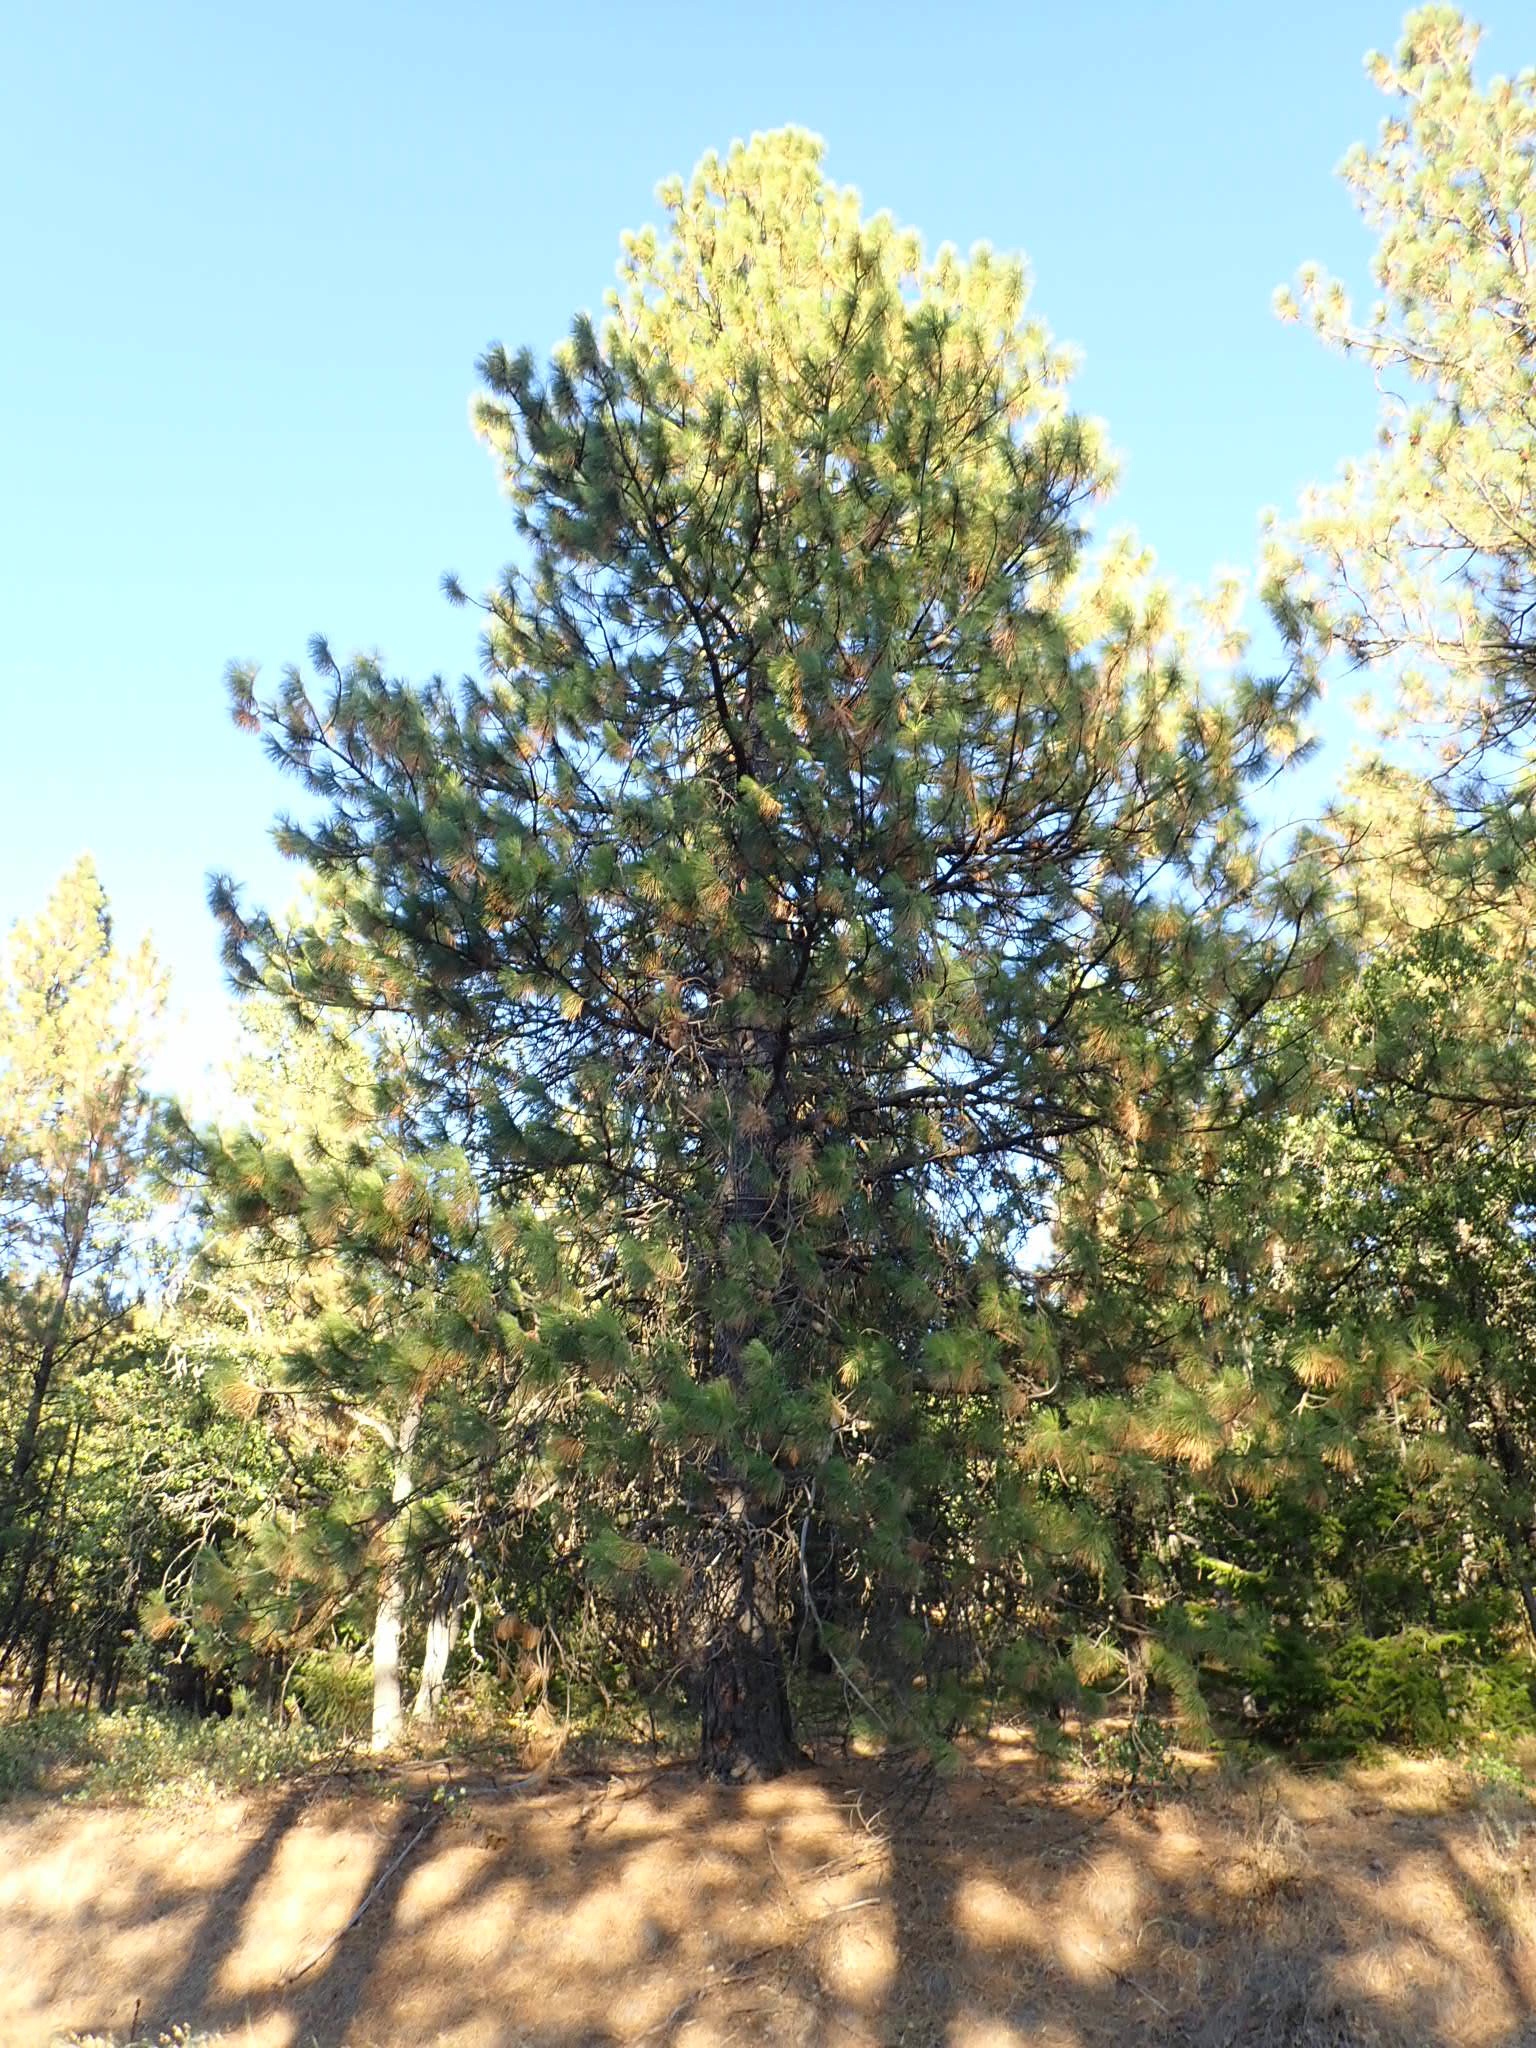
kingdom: Plantae
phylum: Tracheophyta
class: Pinopsida
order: Pinales
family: Pinaceae
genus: Pinus
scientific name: Pinus ponderosa
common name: Western yellow-pine
